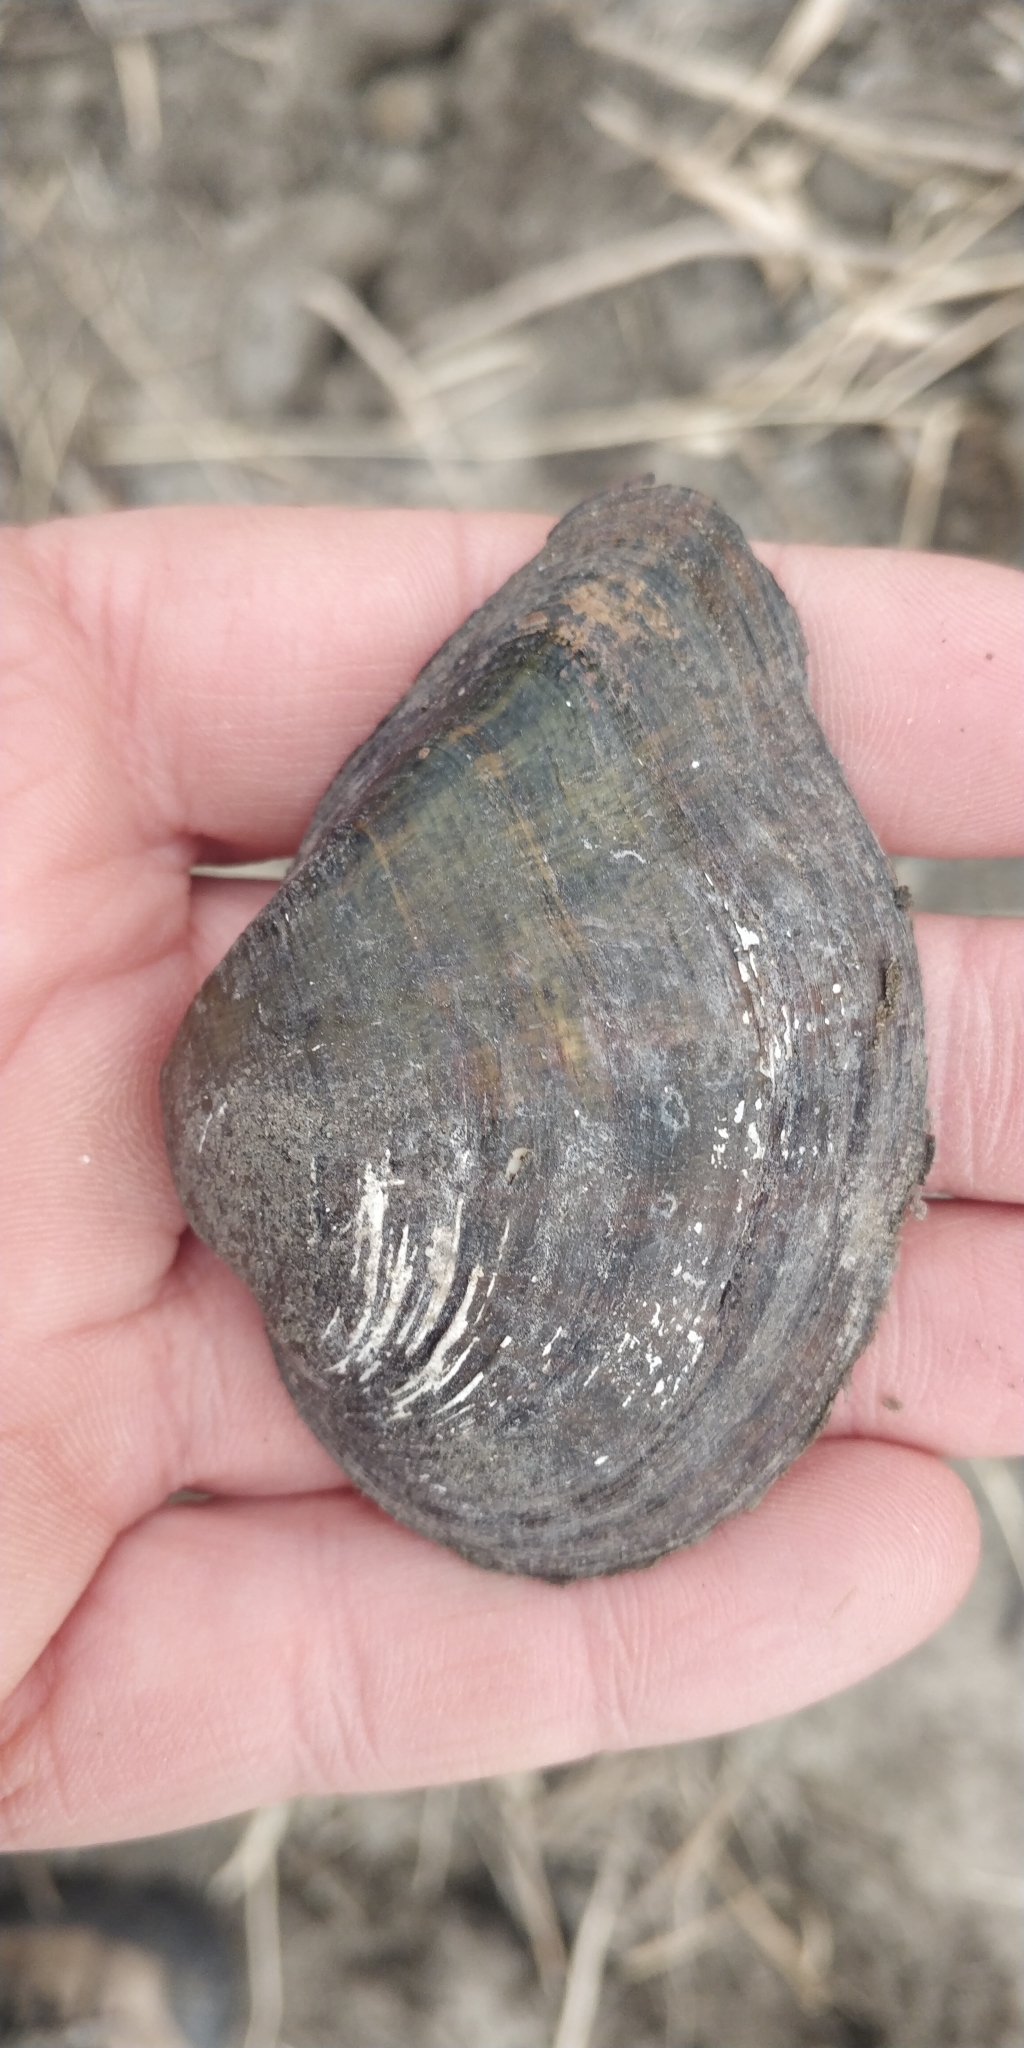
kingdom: Animalia
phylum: Mollusca
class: Bivalvia
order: Unionida
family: Unionidae
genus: Truncilla
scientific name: Truncilla truncata
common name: Deertoe
